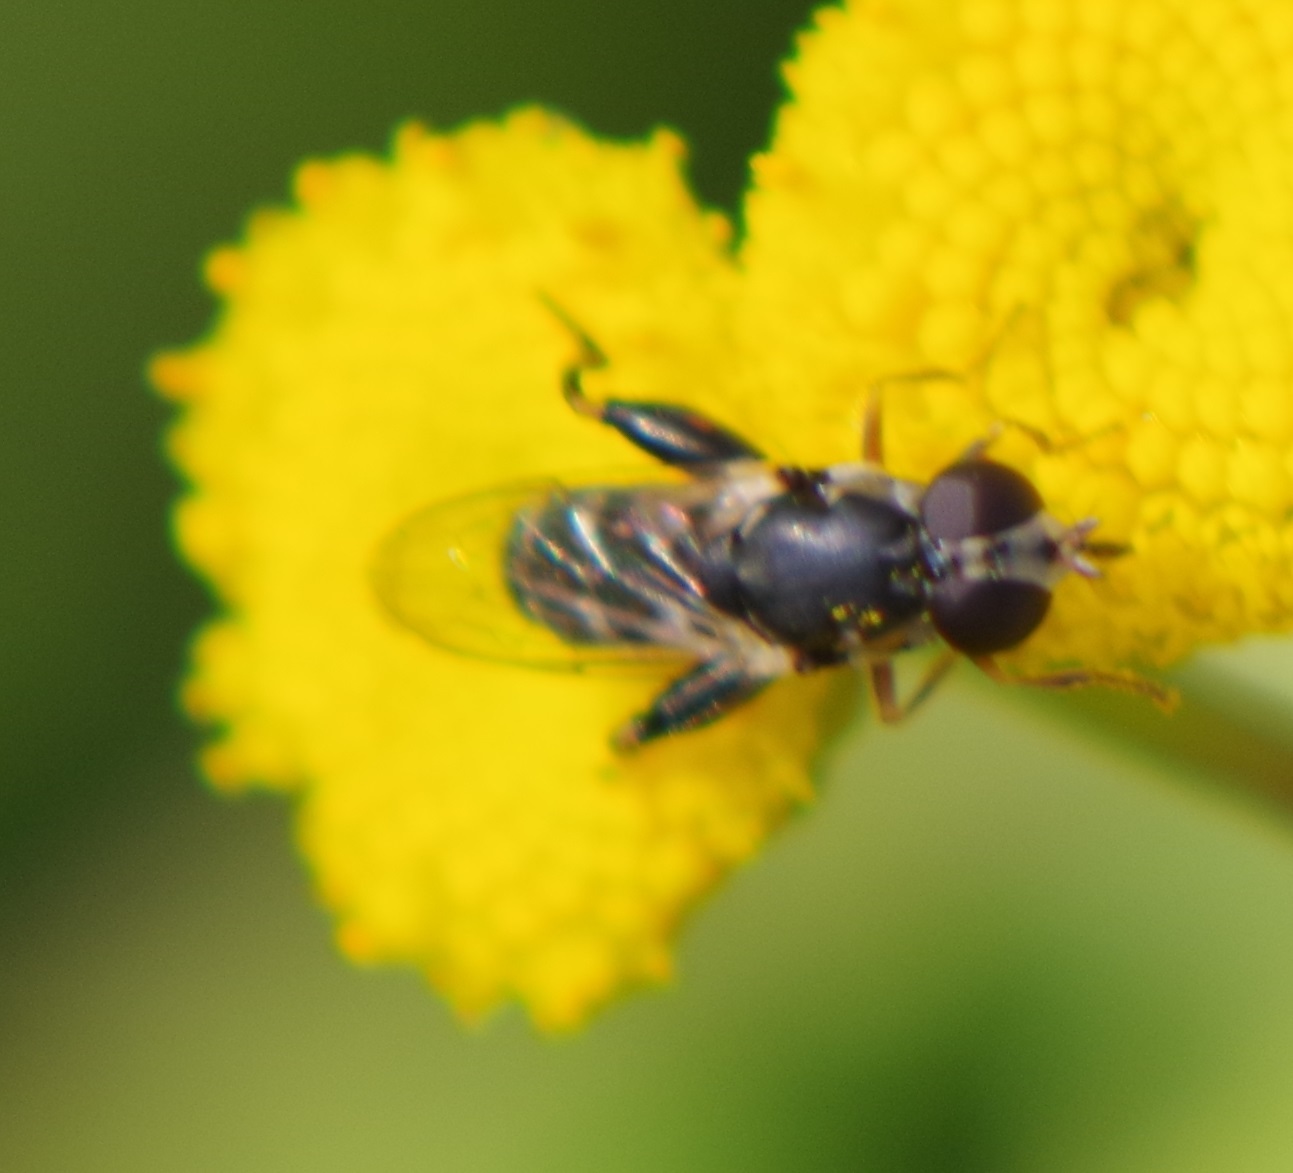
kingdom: Animalia
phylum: Arthropoda
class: Insecta
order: Diptera
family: Syrphidae
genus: Syritta
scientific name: Syritta pipiens
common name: Hover fly
